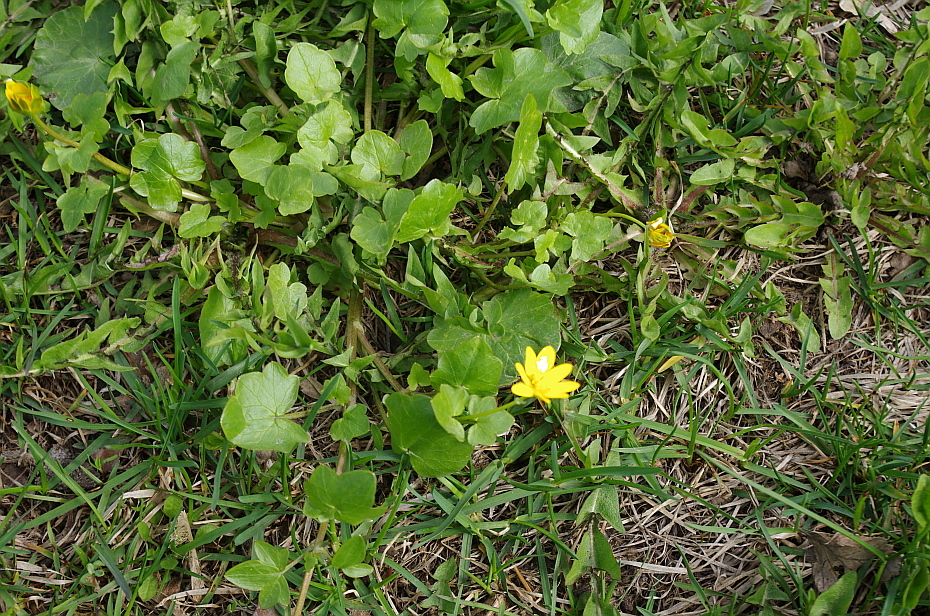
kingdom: Plantae
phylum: Tracheophyta
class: Magnoliopsida
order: Ranunculales
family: Ranunculaceae
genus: Ficaria
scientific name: Ficaria verna
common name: Lesser celandine
